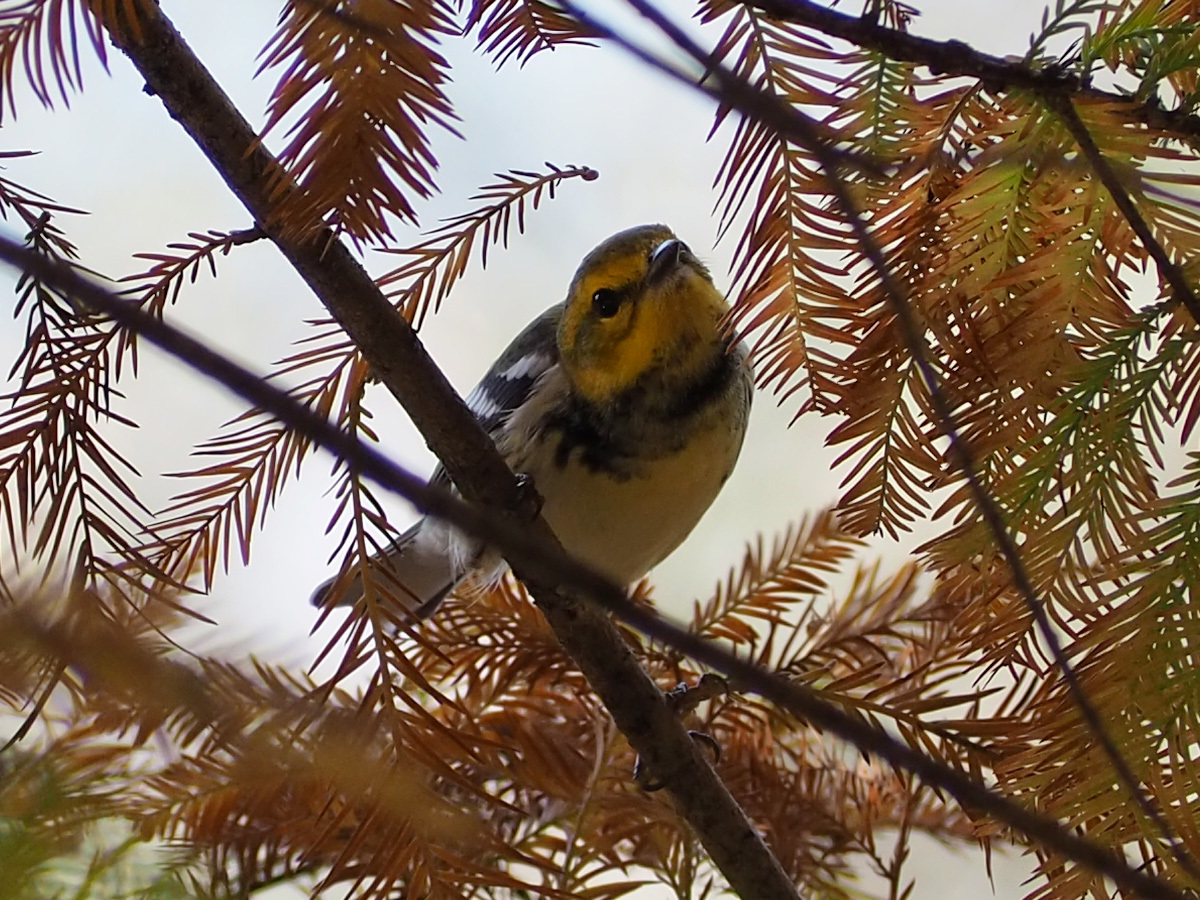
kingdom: Animalia
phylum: Chordata
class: Aves
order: Passeriformes
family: Parulidae
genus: Setophaga
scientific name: Setophaga virens
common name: Black-throated green warbler
